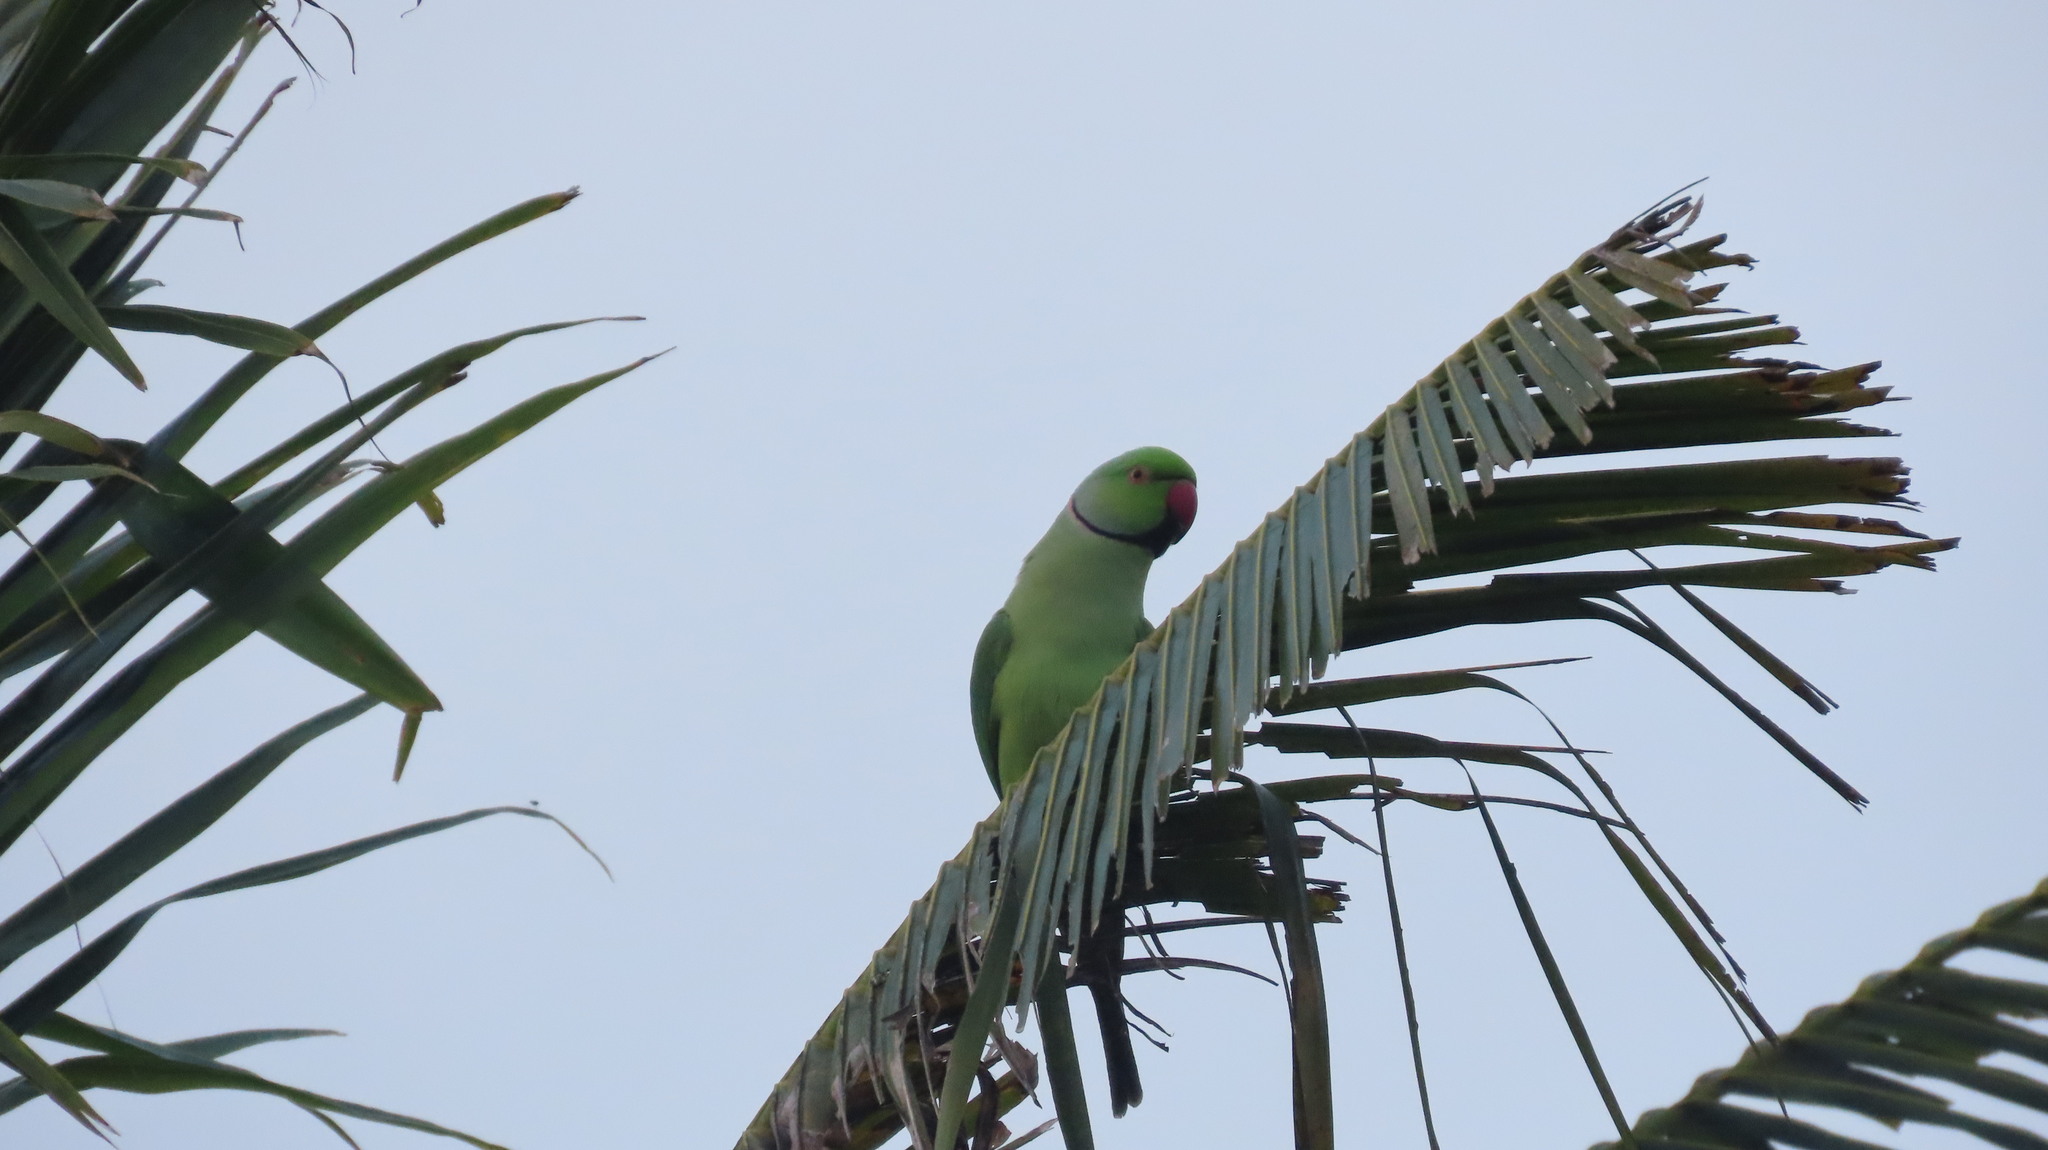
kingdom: Animalia
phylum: Chordata
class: Aves
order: Psittaciformes
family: Psittacidae
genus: Psittacula
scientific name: Psittacula krameri
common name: Rose-ringed parakeet
